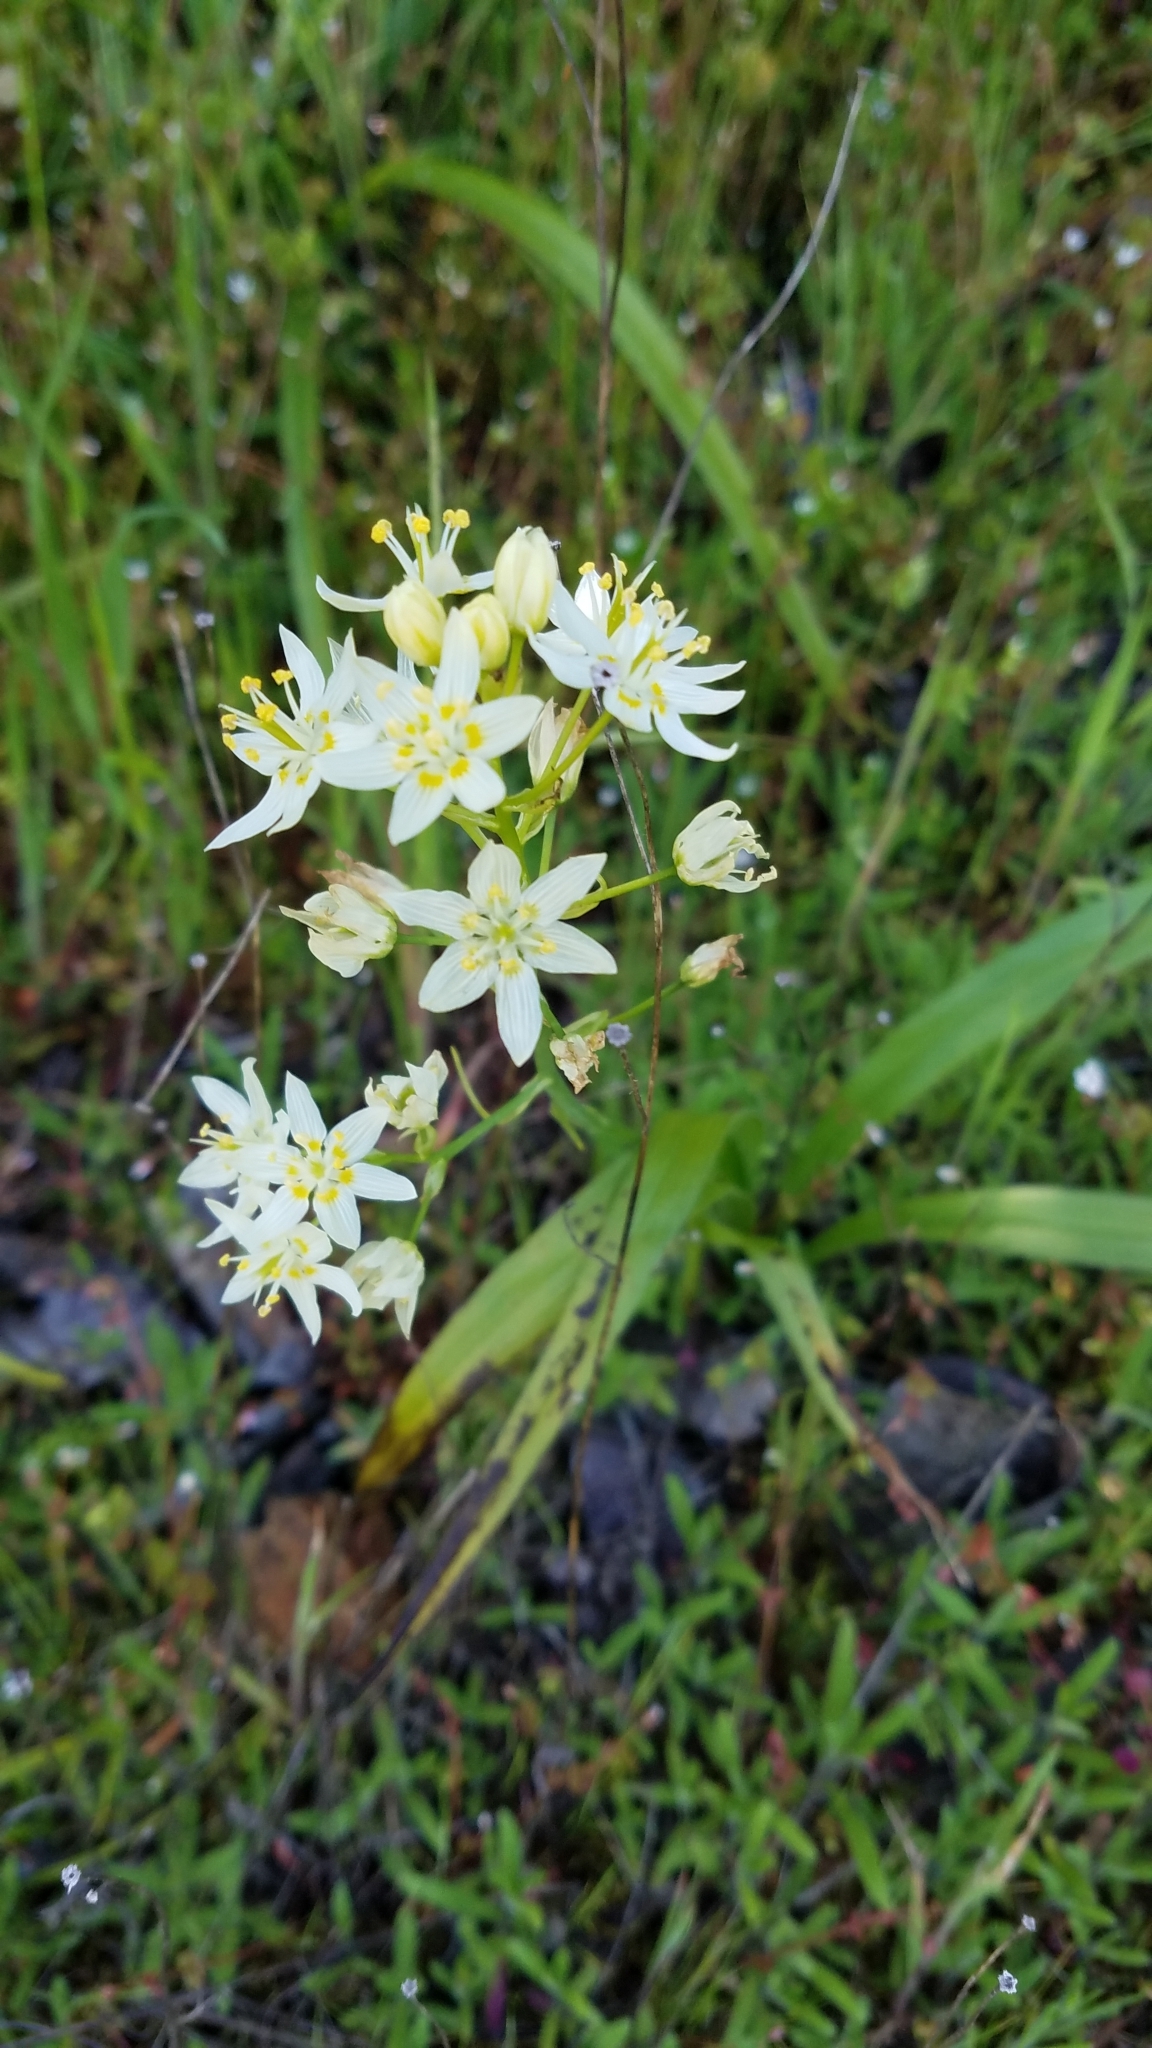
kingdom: Plantae
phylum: Tracheophyta
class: Liliopsida
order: Liliales
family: Melanthiaceae
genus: Toxicoscordion
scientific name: Toxicoscordion fremontii
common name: Fremont's death camas
